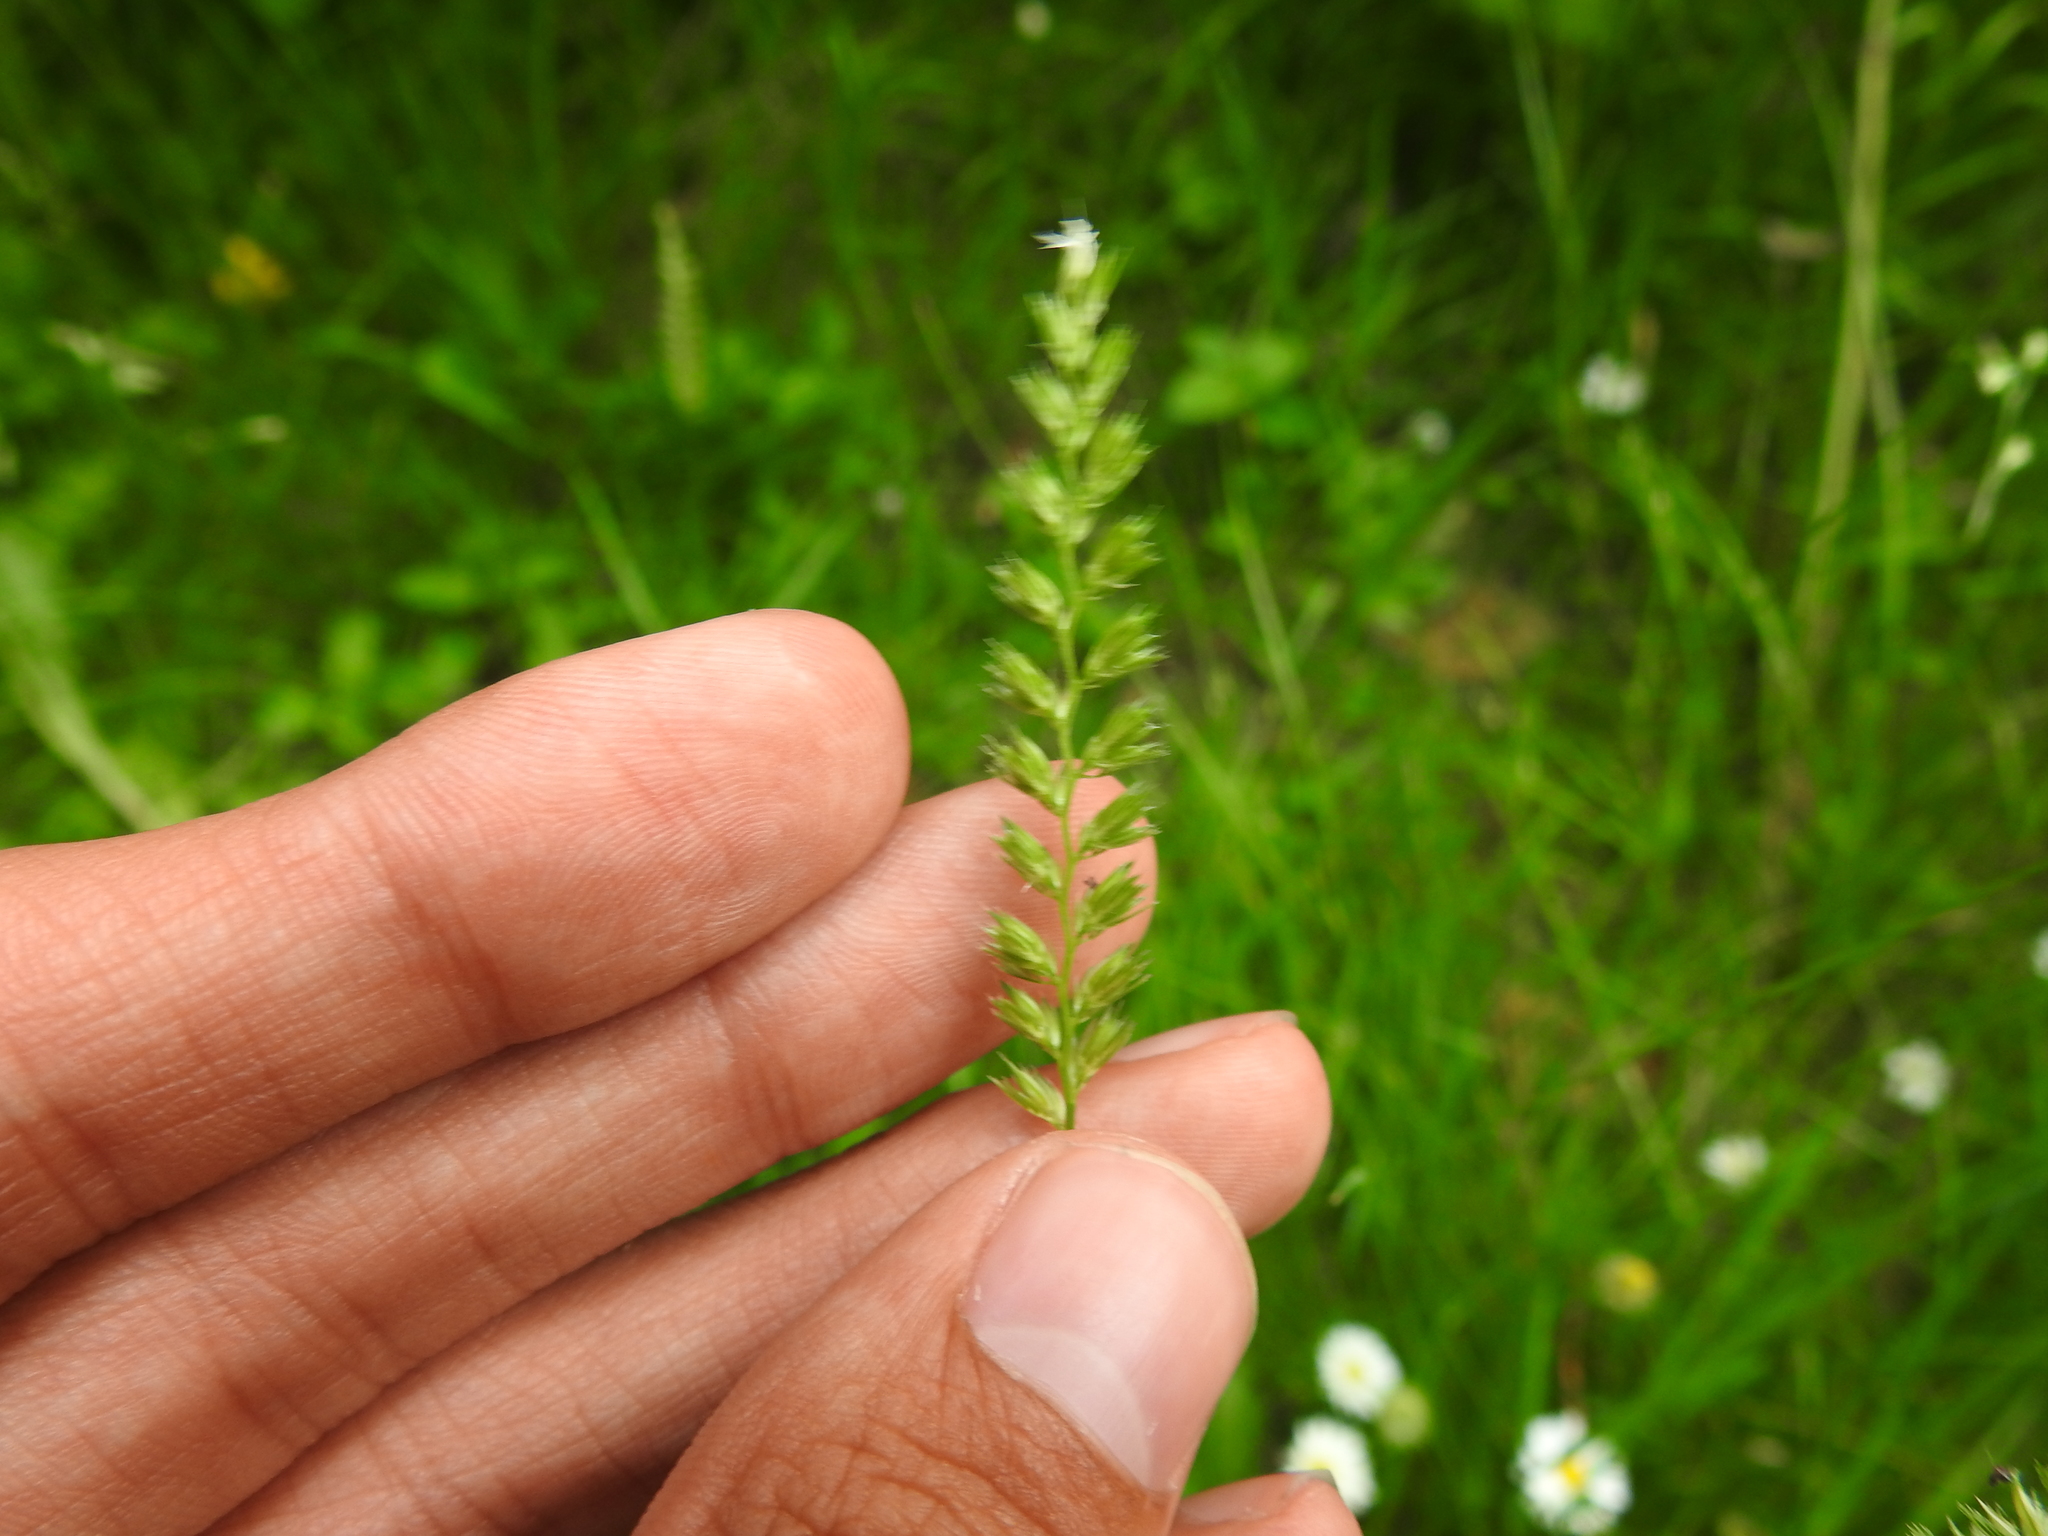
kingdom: Plantae
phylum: Tracheophyta
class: Liliopsida
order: Poales
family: Poaceae
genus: Cynosurus
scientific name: Cynosurus cristatus
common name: Crested dog's-tail
